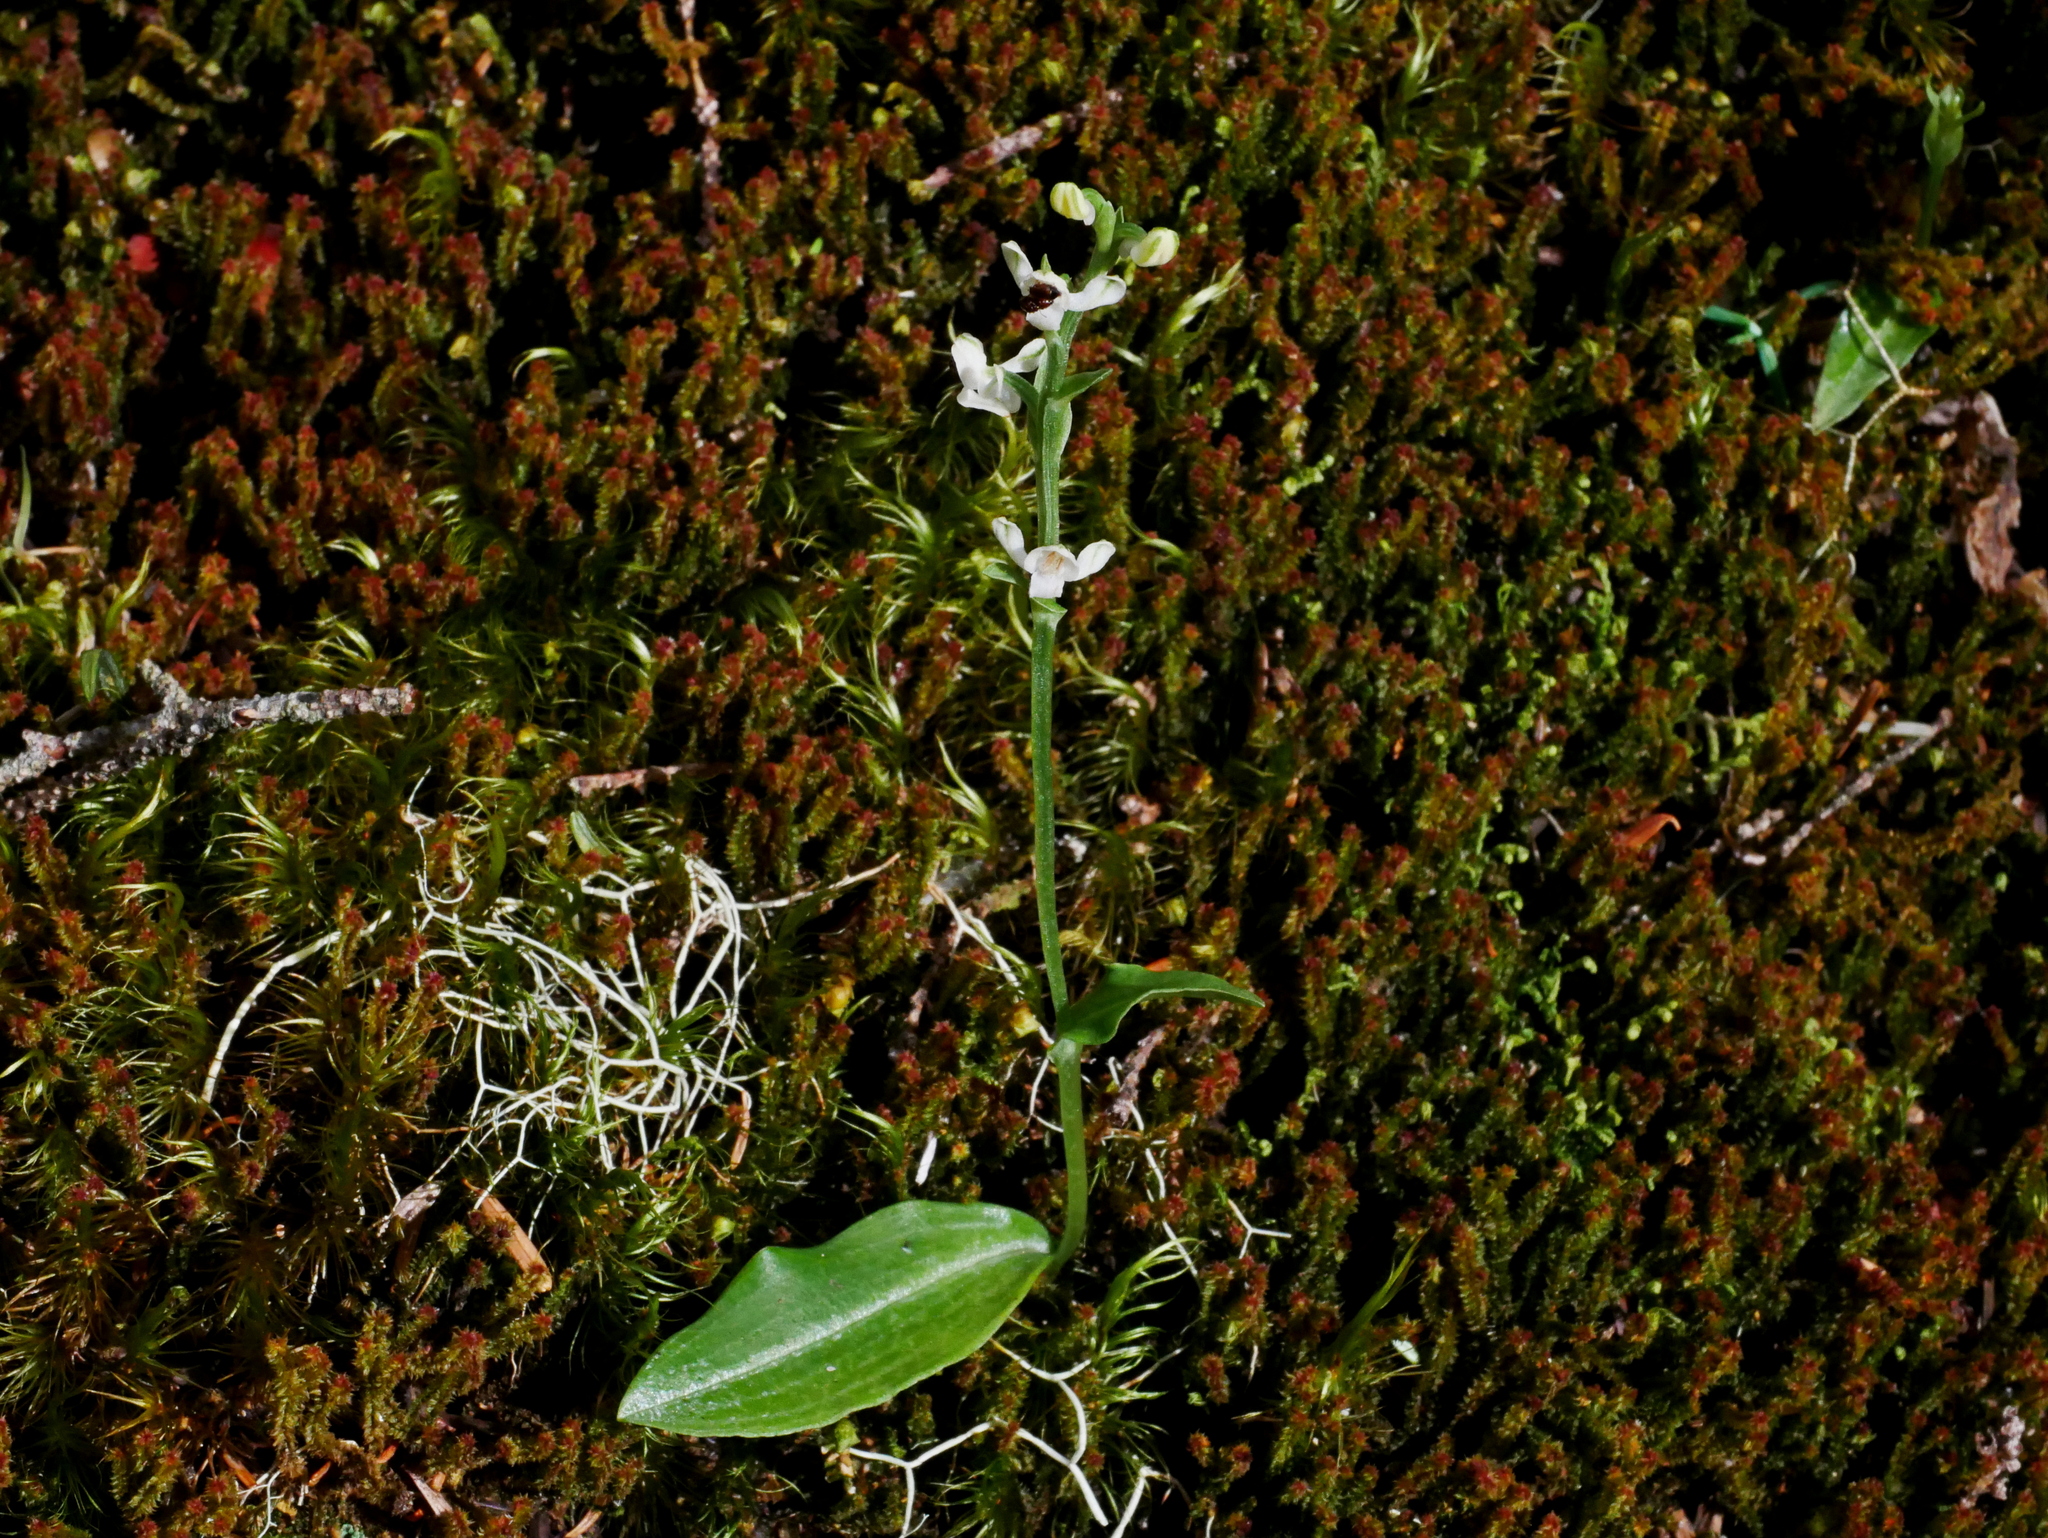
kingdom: Plantae
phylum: Tracheophyta
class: Liliopsida
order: Asparagales
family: Orchidaceae
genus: Platanthera
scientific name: Platanthera brevicalcarata
